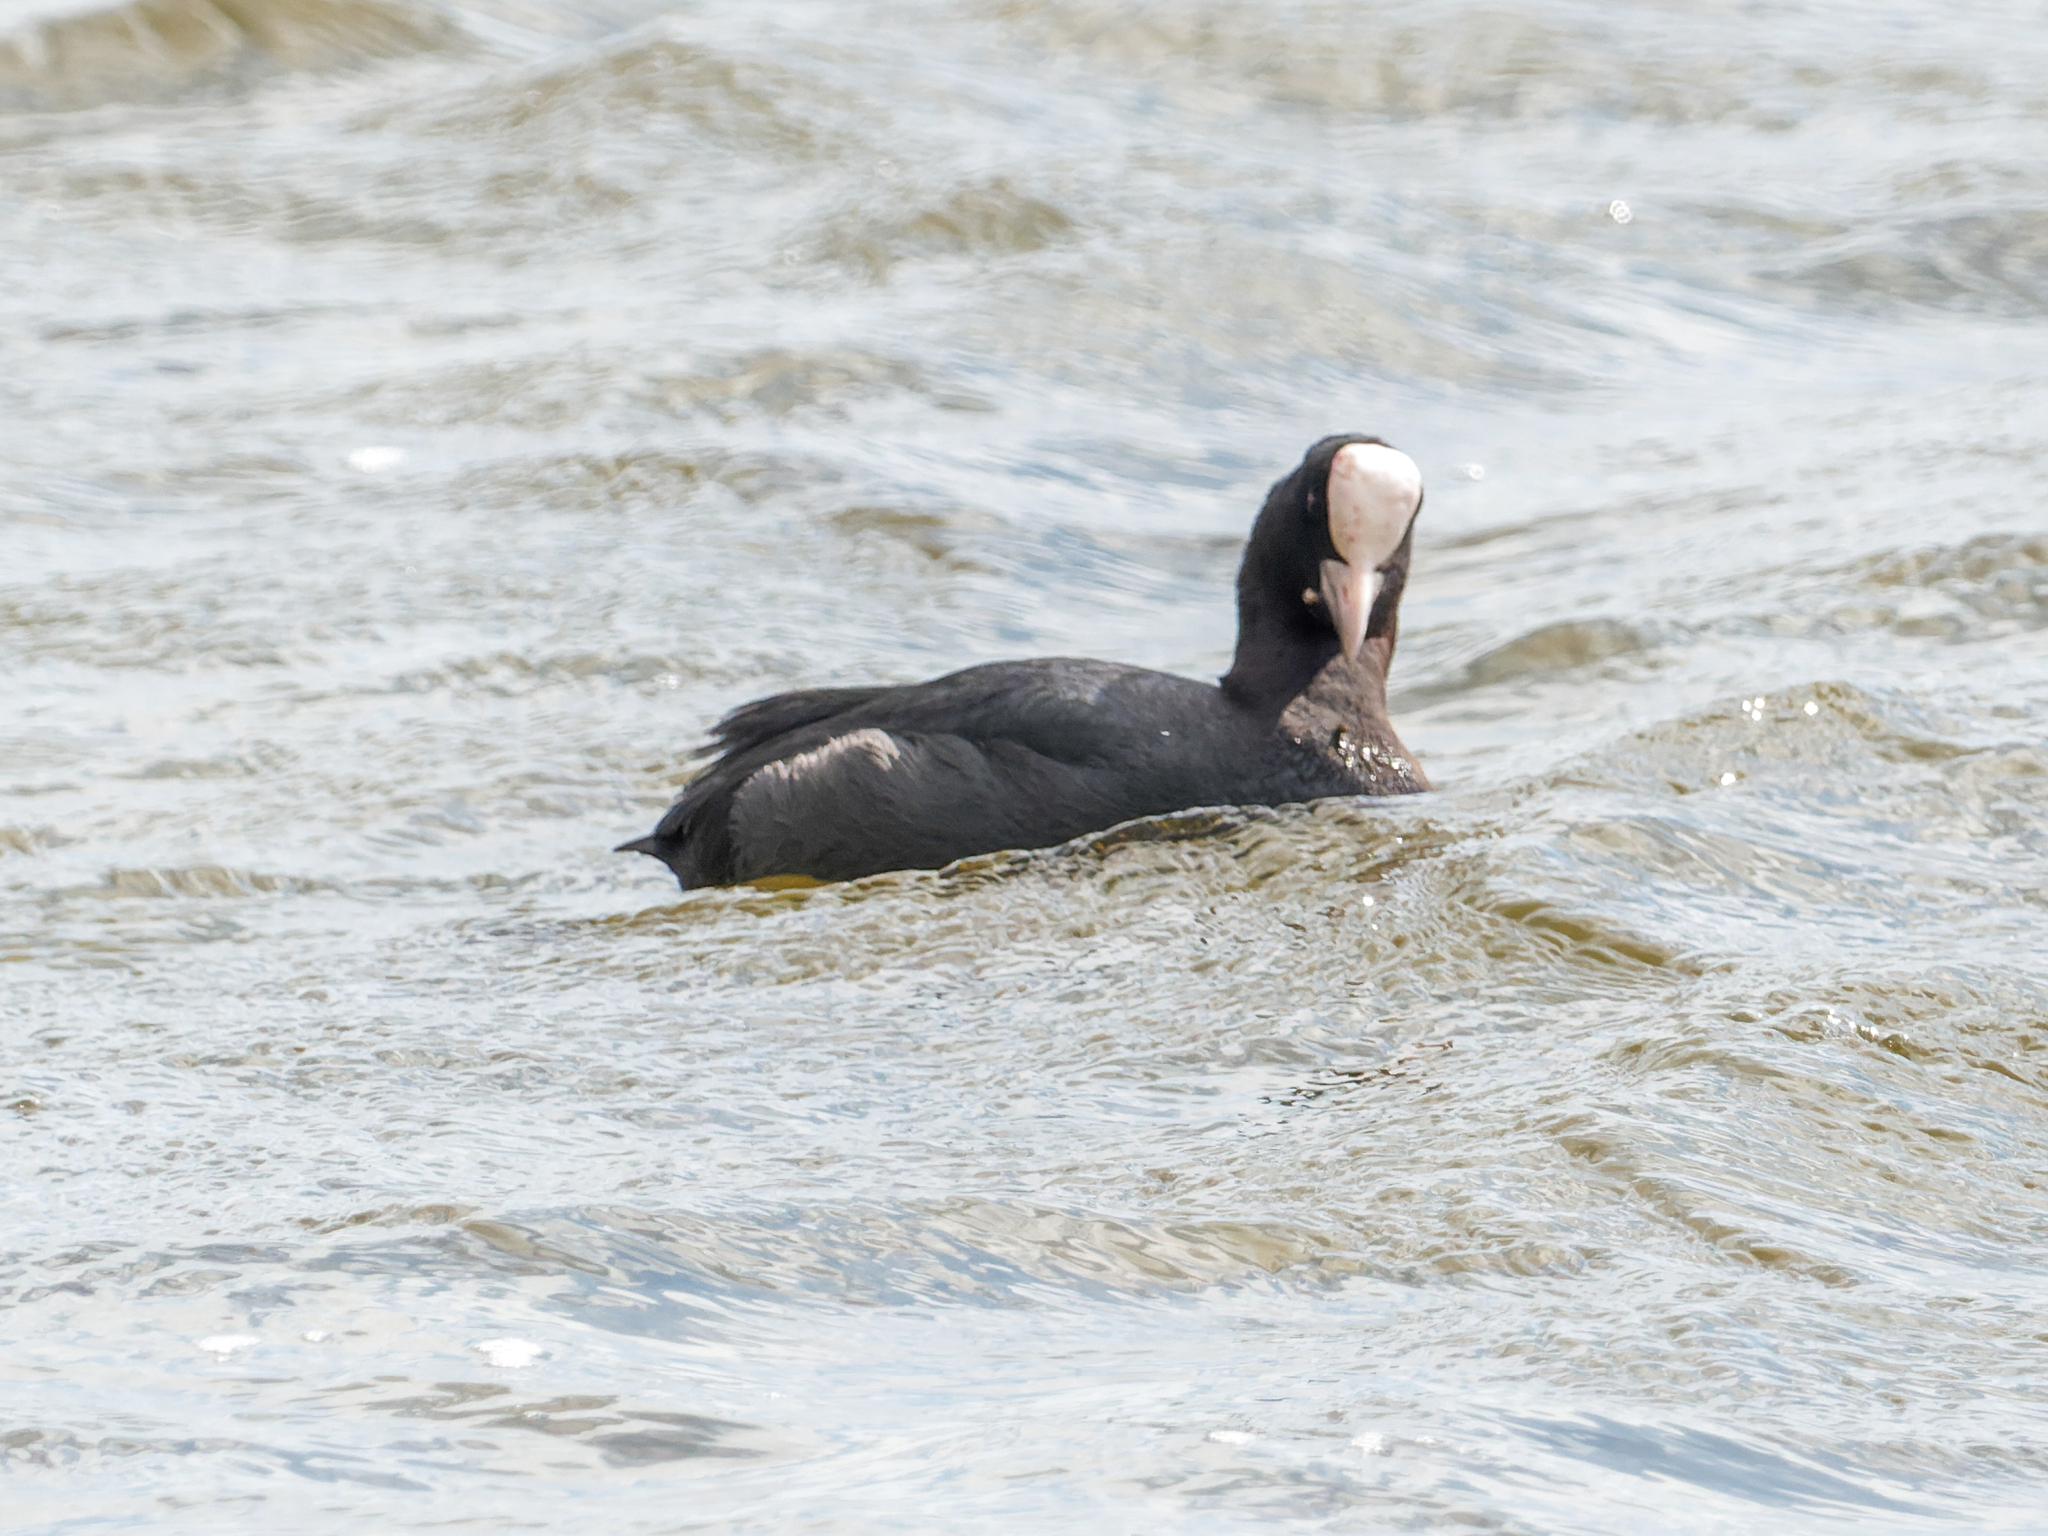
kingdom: Animalia
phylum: Chordata
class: Aves
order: Gruiformes
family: Rallidae
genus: Fulica
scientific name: Fulica atra
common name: Eurasian coot
